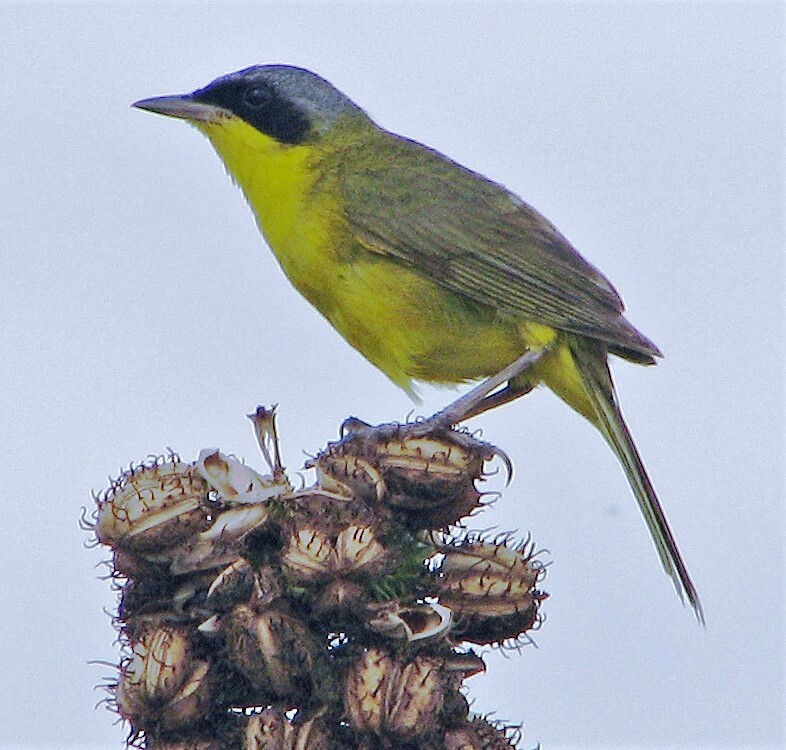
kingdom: Animalia
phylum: Chordata
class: Aves
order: Passeriformes
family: Parulidae
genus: Geothlypis
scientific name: Geothlypis velata
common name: Southern yellowthroat
